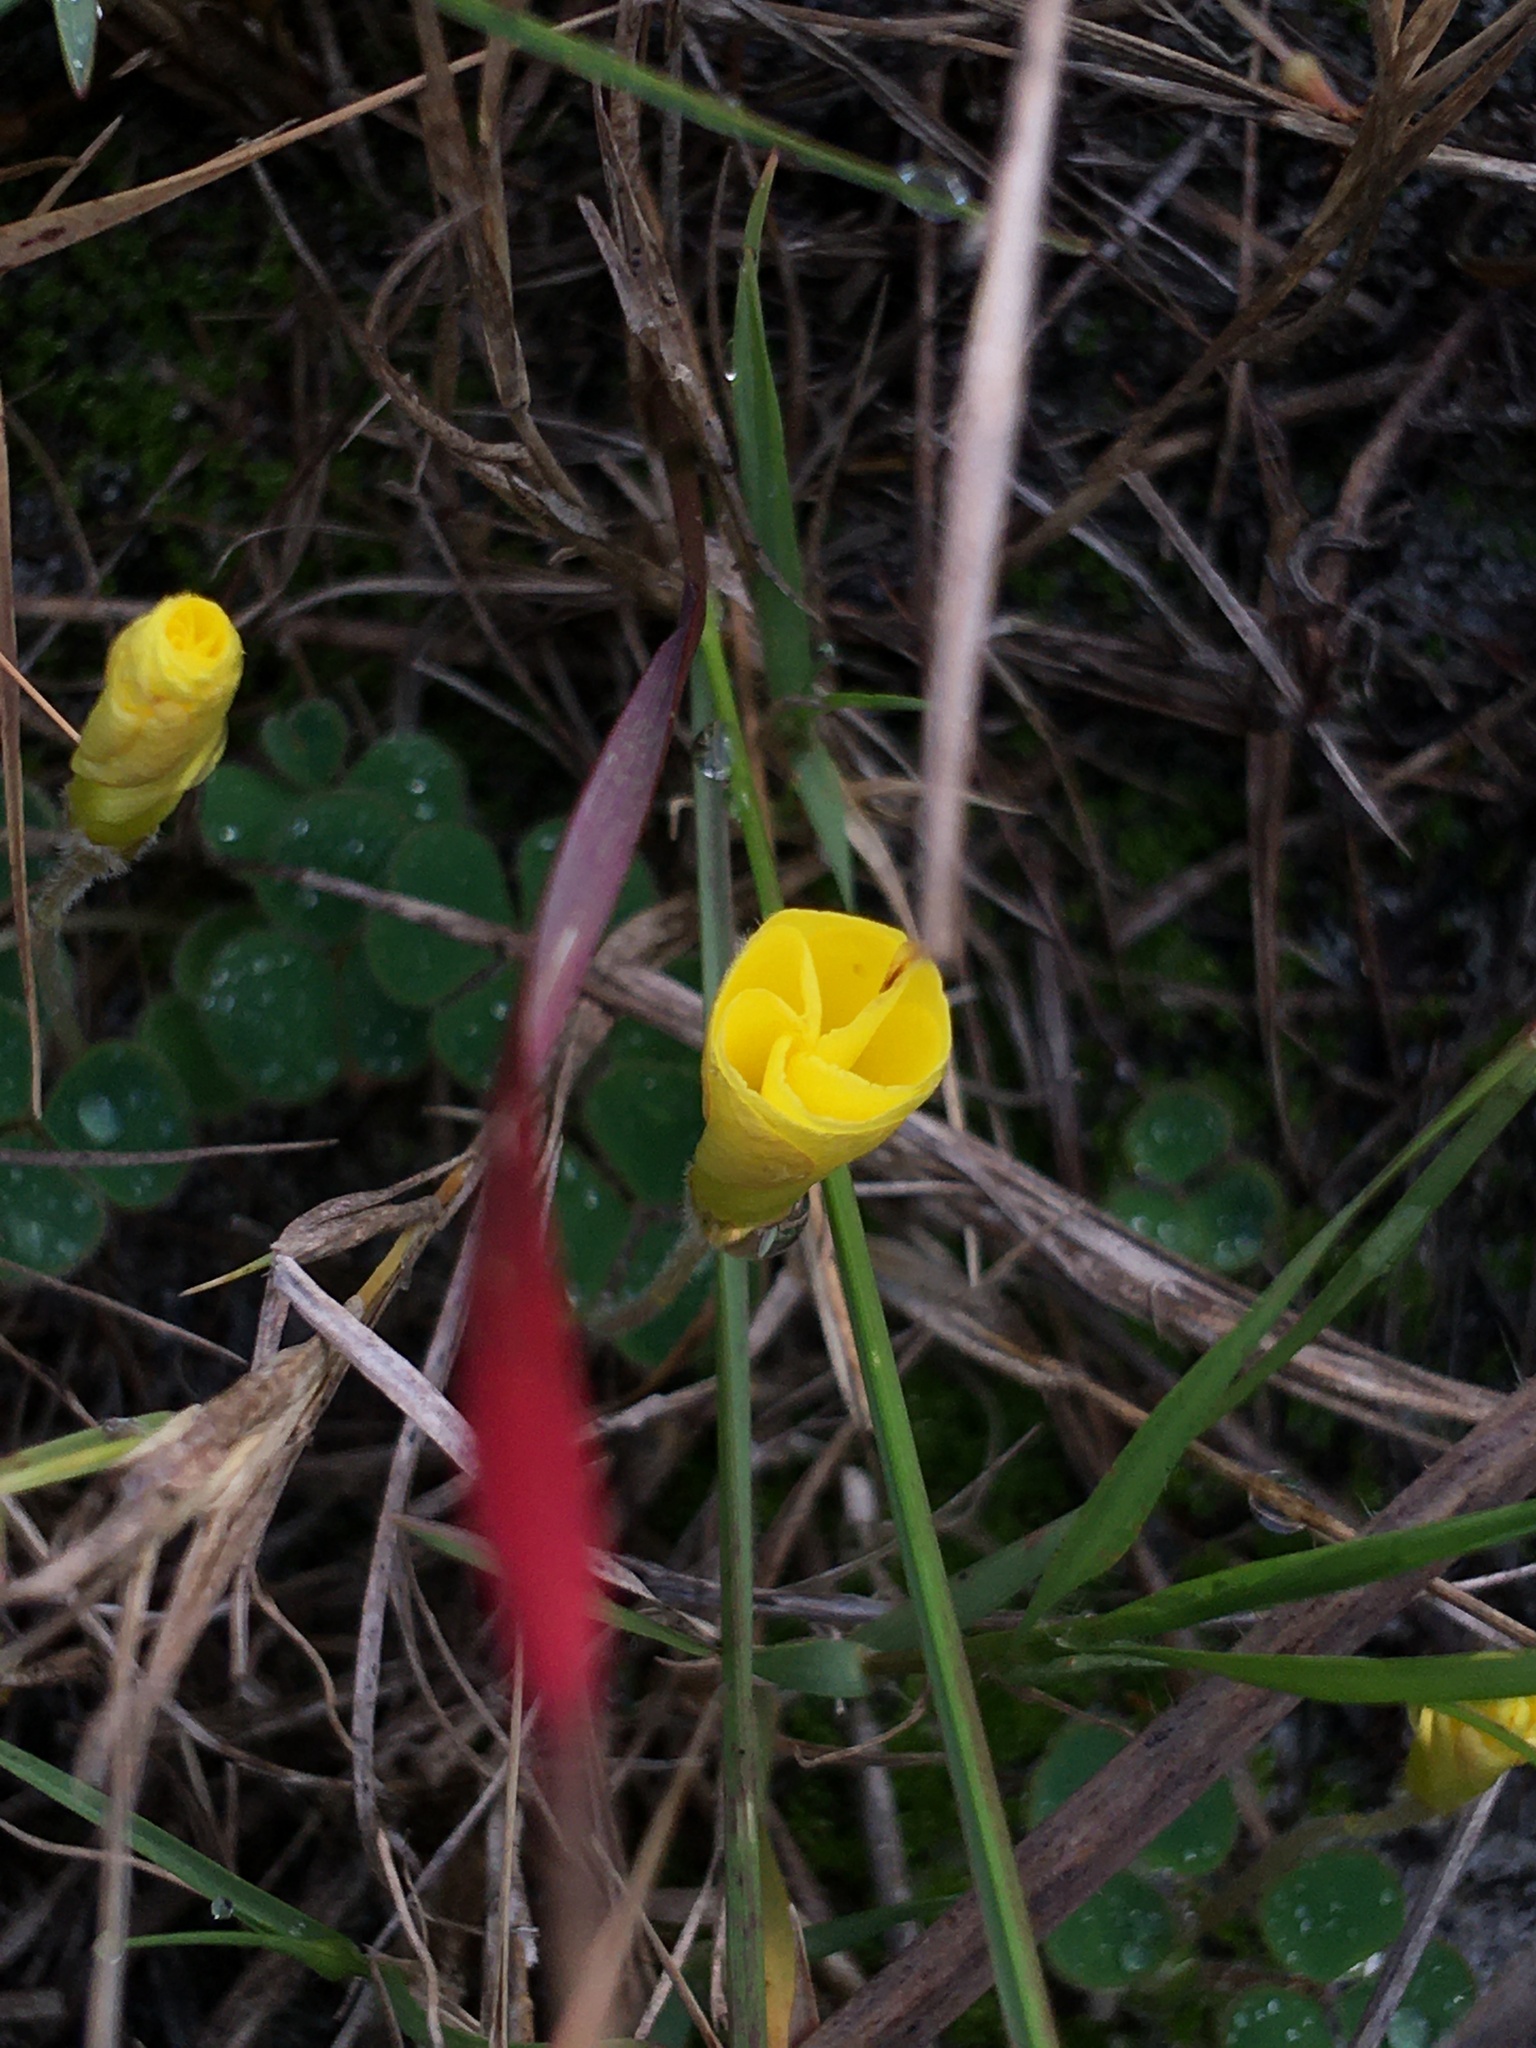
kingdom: Plantae
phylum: Tracheophyta
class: Magnoliopsida
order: Oxalidales
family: Oxalidaceae
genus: Oxalis
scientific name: Oxalis luteola
